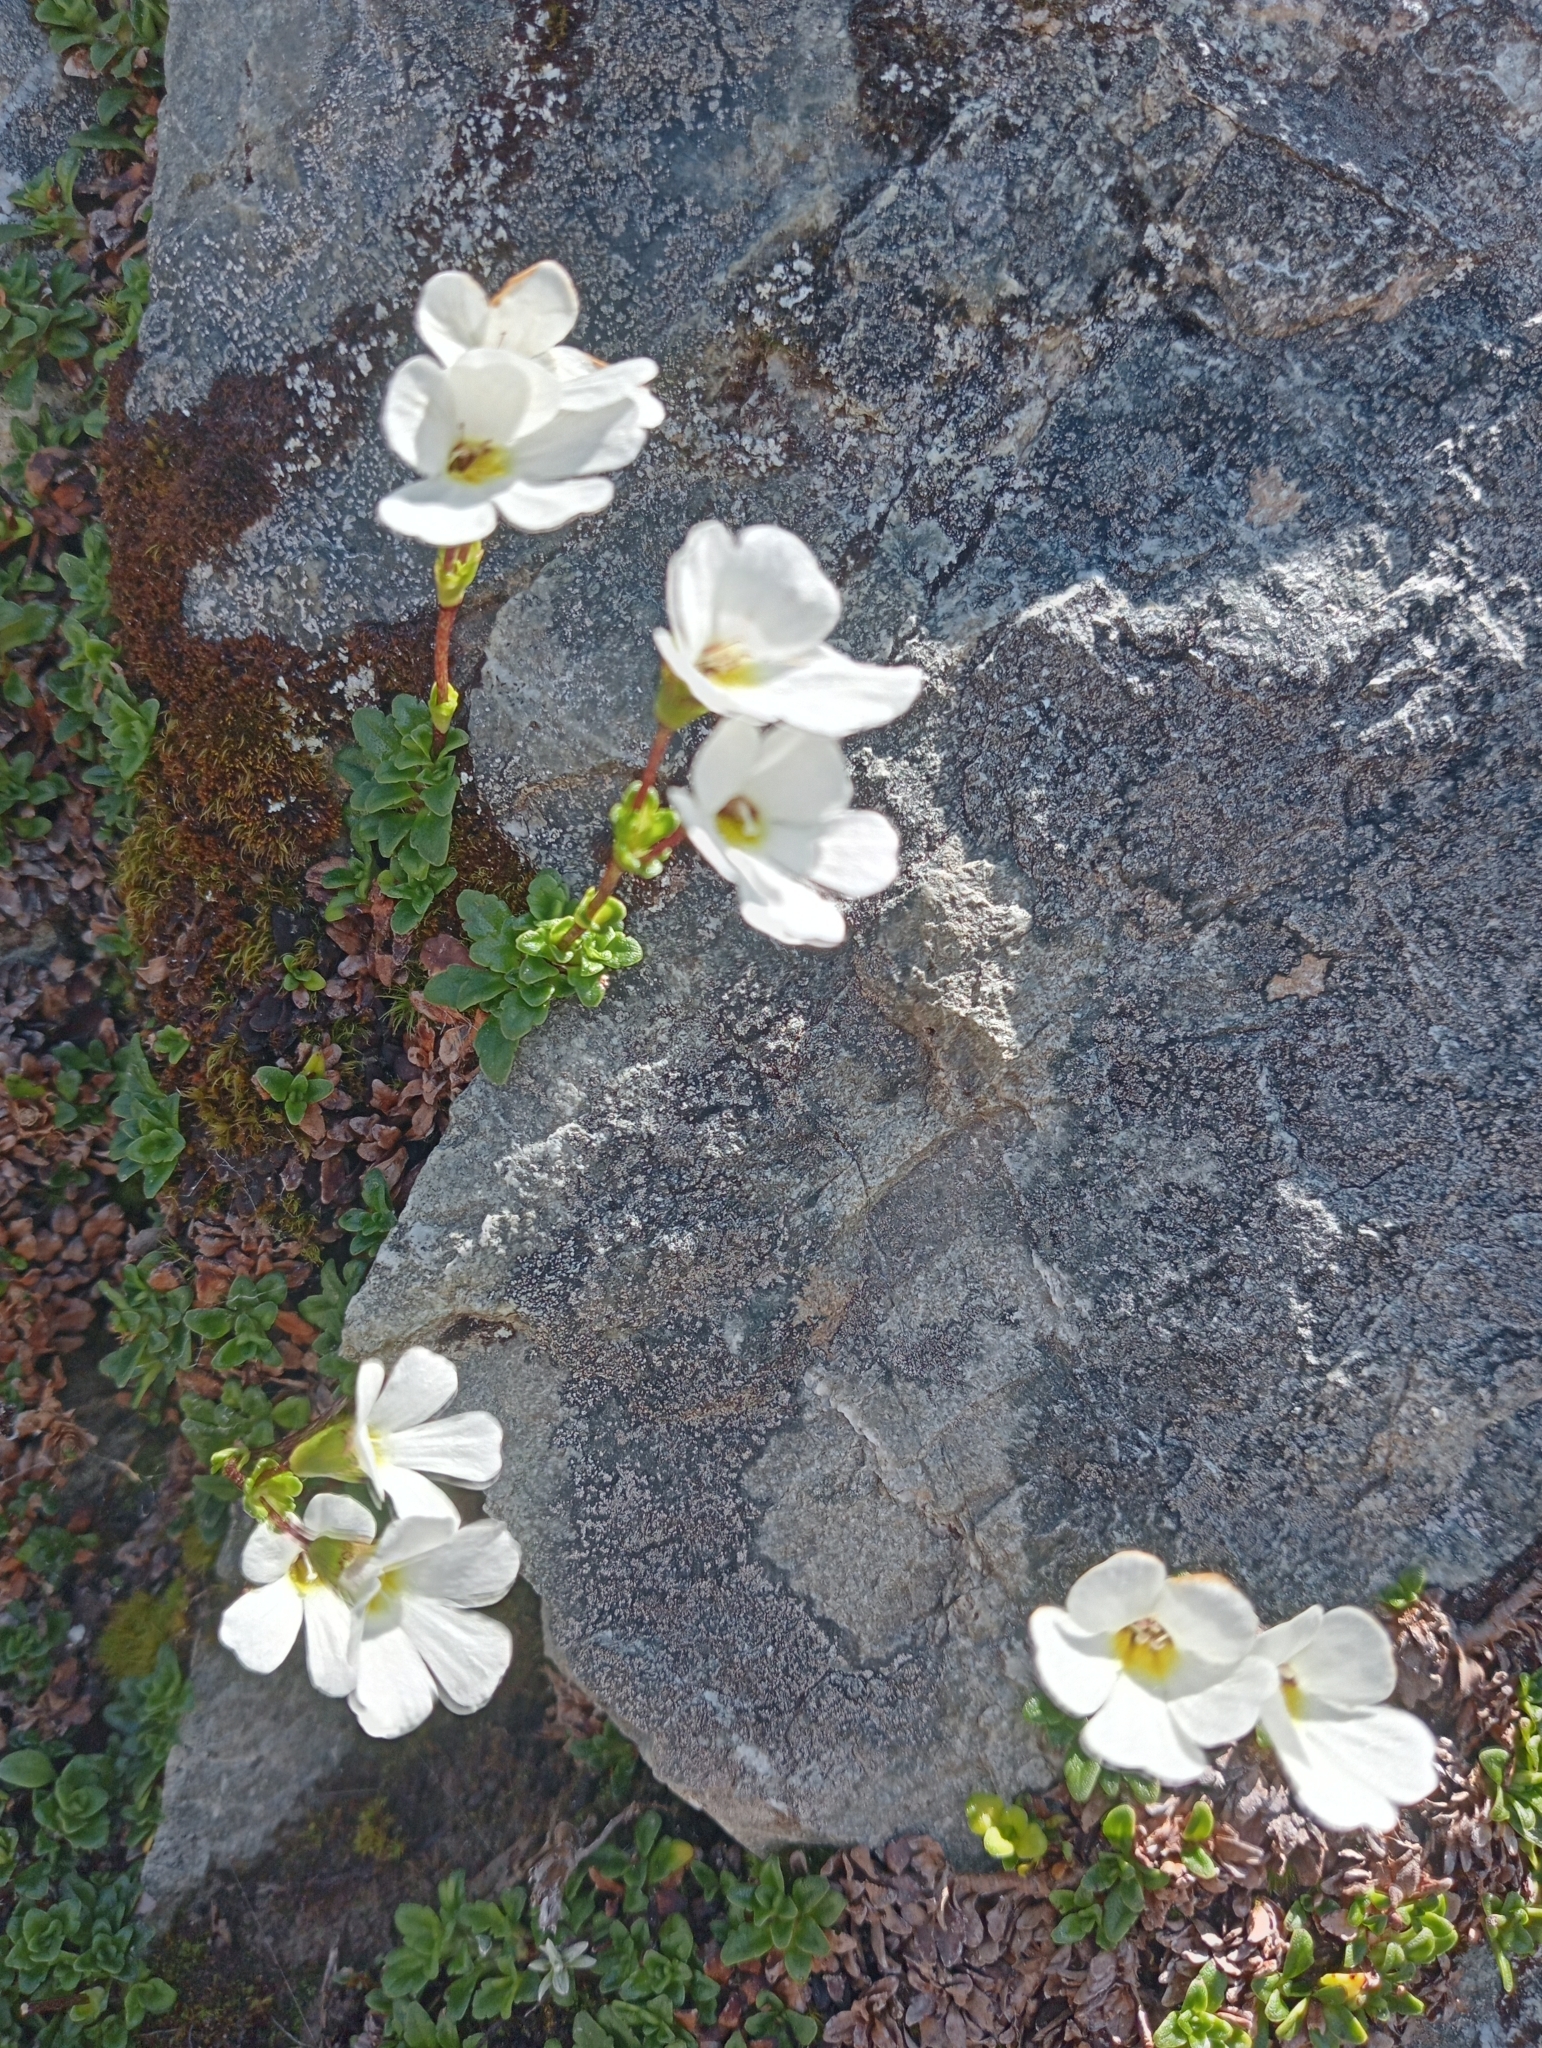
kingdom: Plantae
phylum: Tracheophyta
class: Magnoliopsida
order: Lamiales
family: Plantaginaceae
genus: Ourisia
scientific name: Ourisia caespitosa
